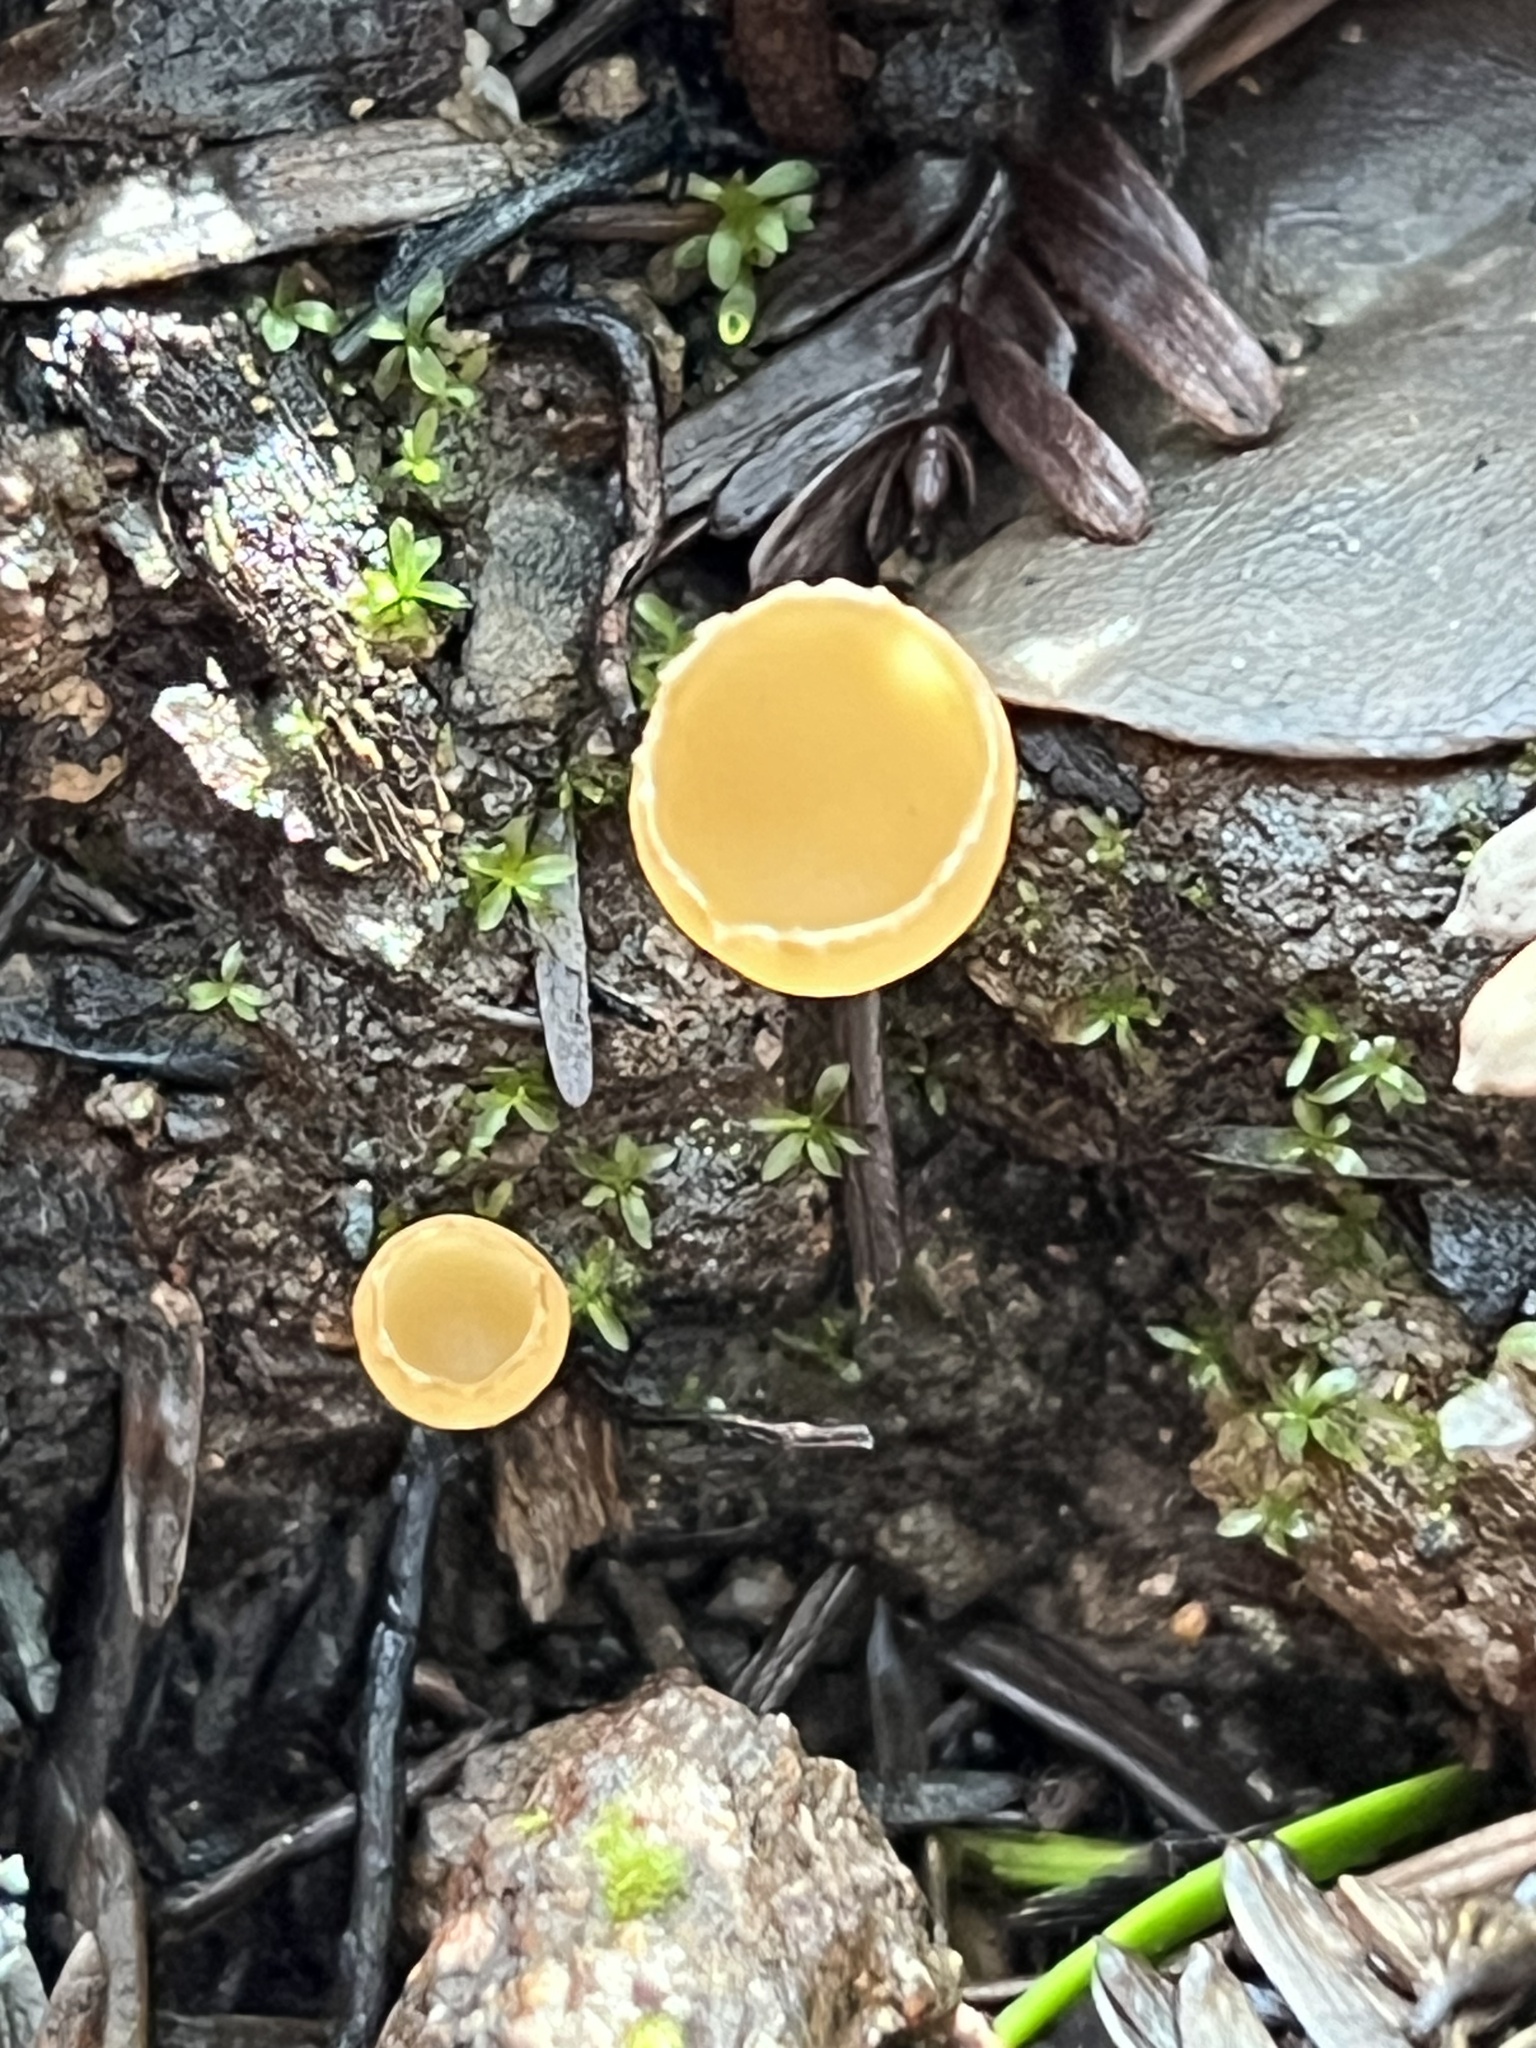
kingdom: Fungi
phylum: Ascomycota
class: Pezizomycetes
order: Pezizales
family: Pyronemataceae
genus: Geopyxis
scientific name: Geopyxis deceptiva
